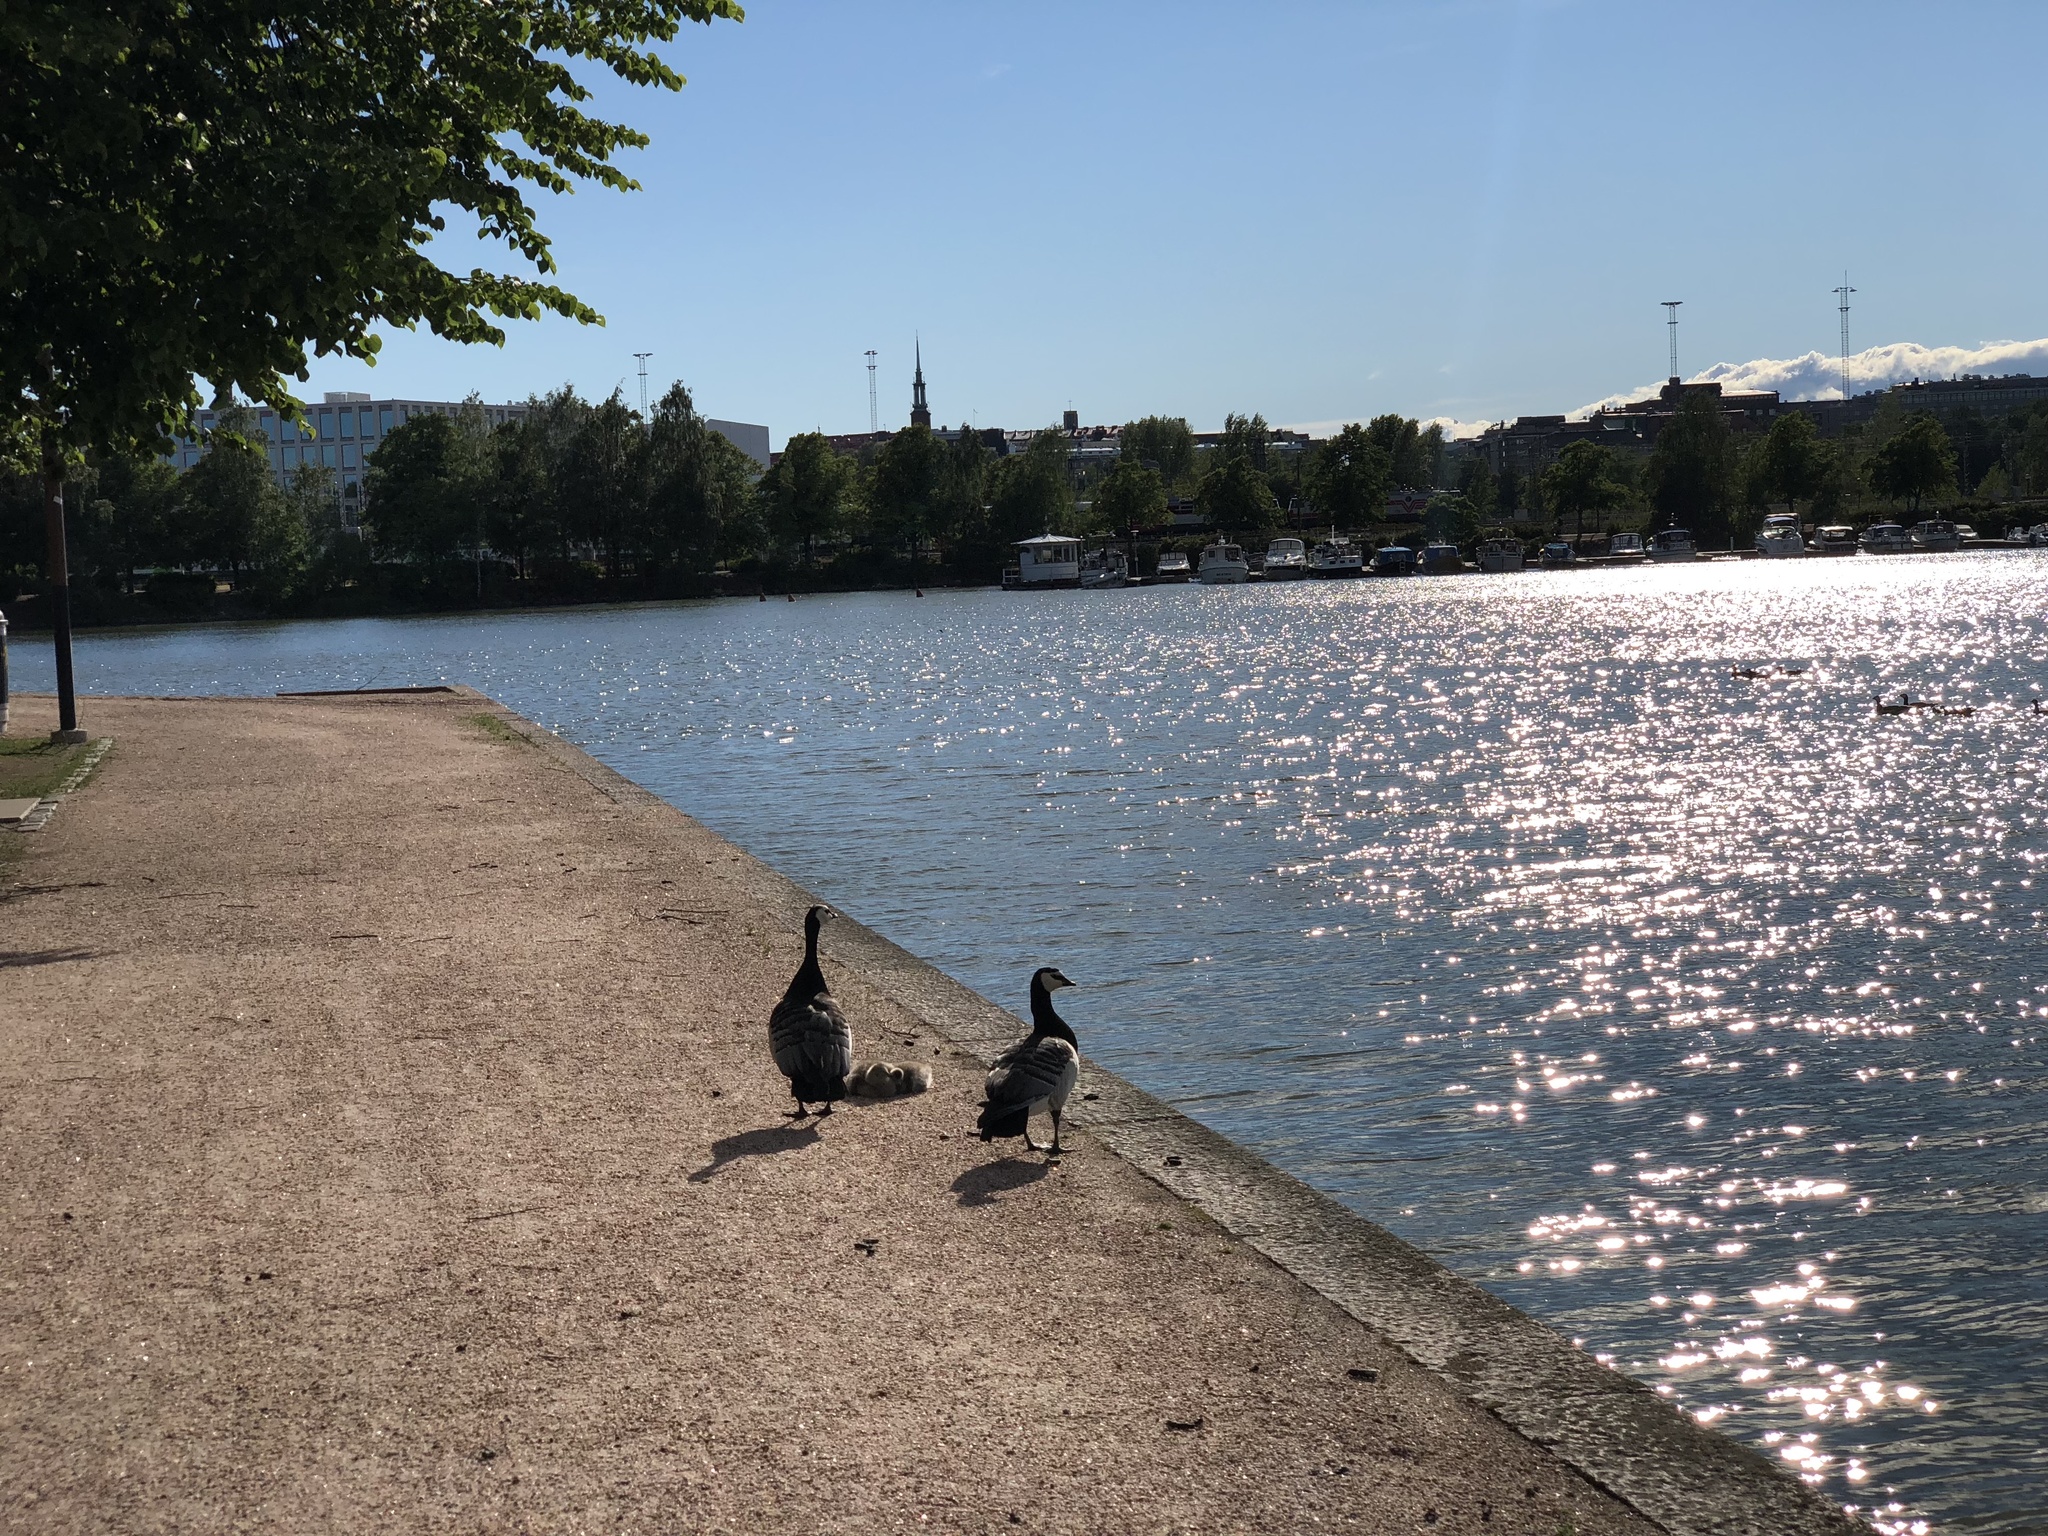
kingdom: Animalia
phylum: Chordata
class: Aves
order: Anseriformes
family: Anatidae
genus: Branta
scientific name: Branta leucopsis
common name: Barnacle goose
